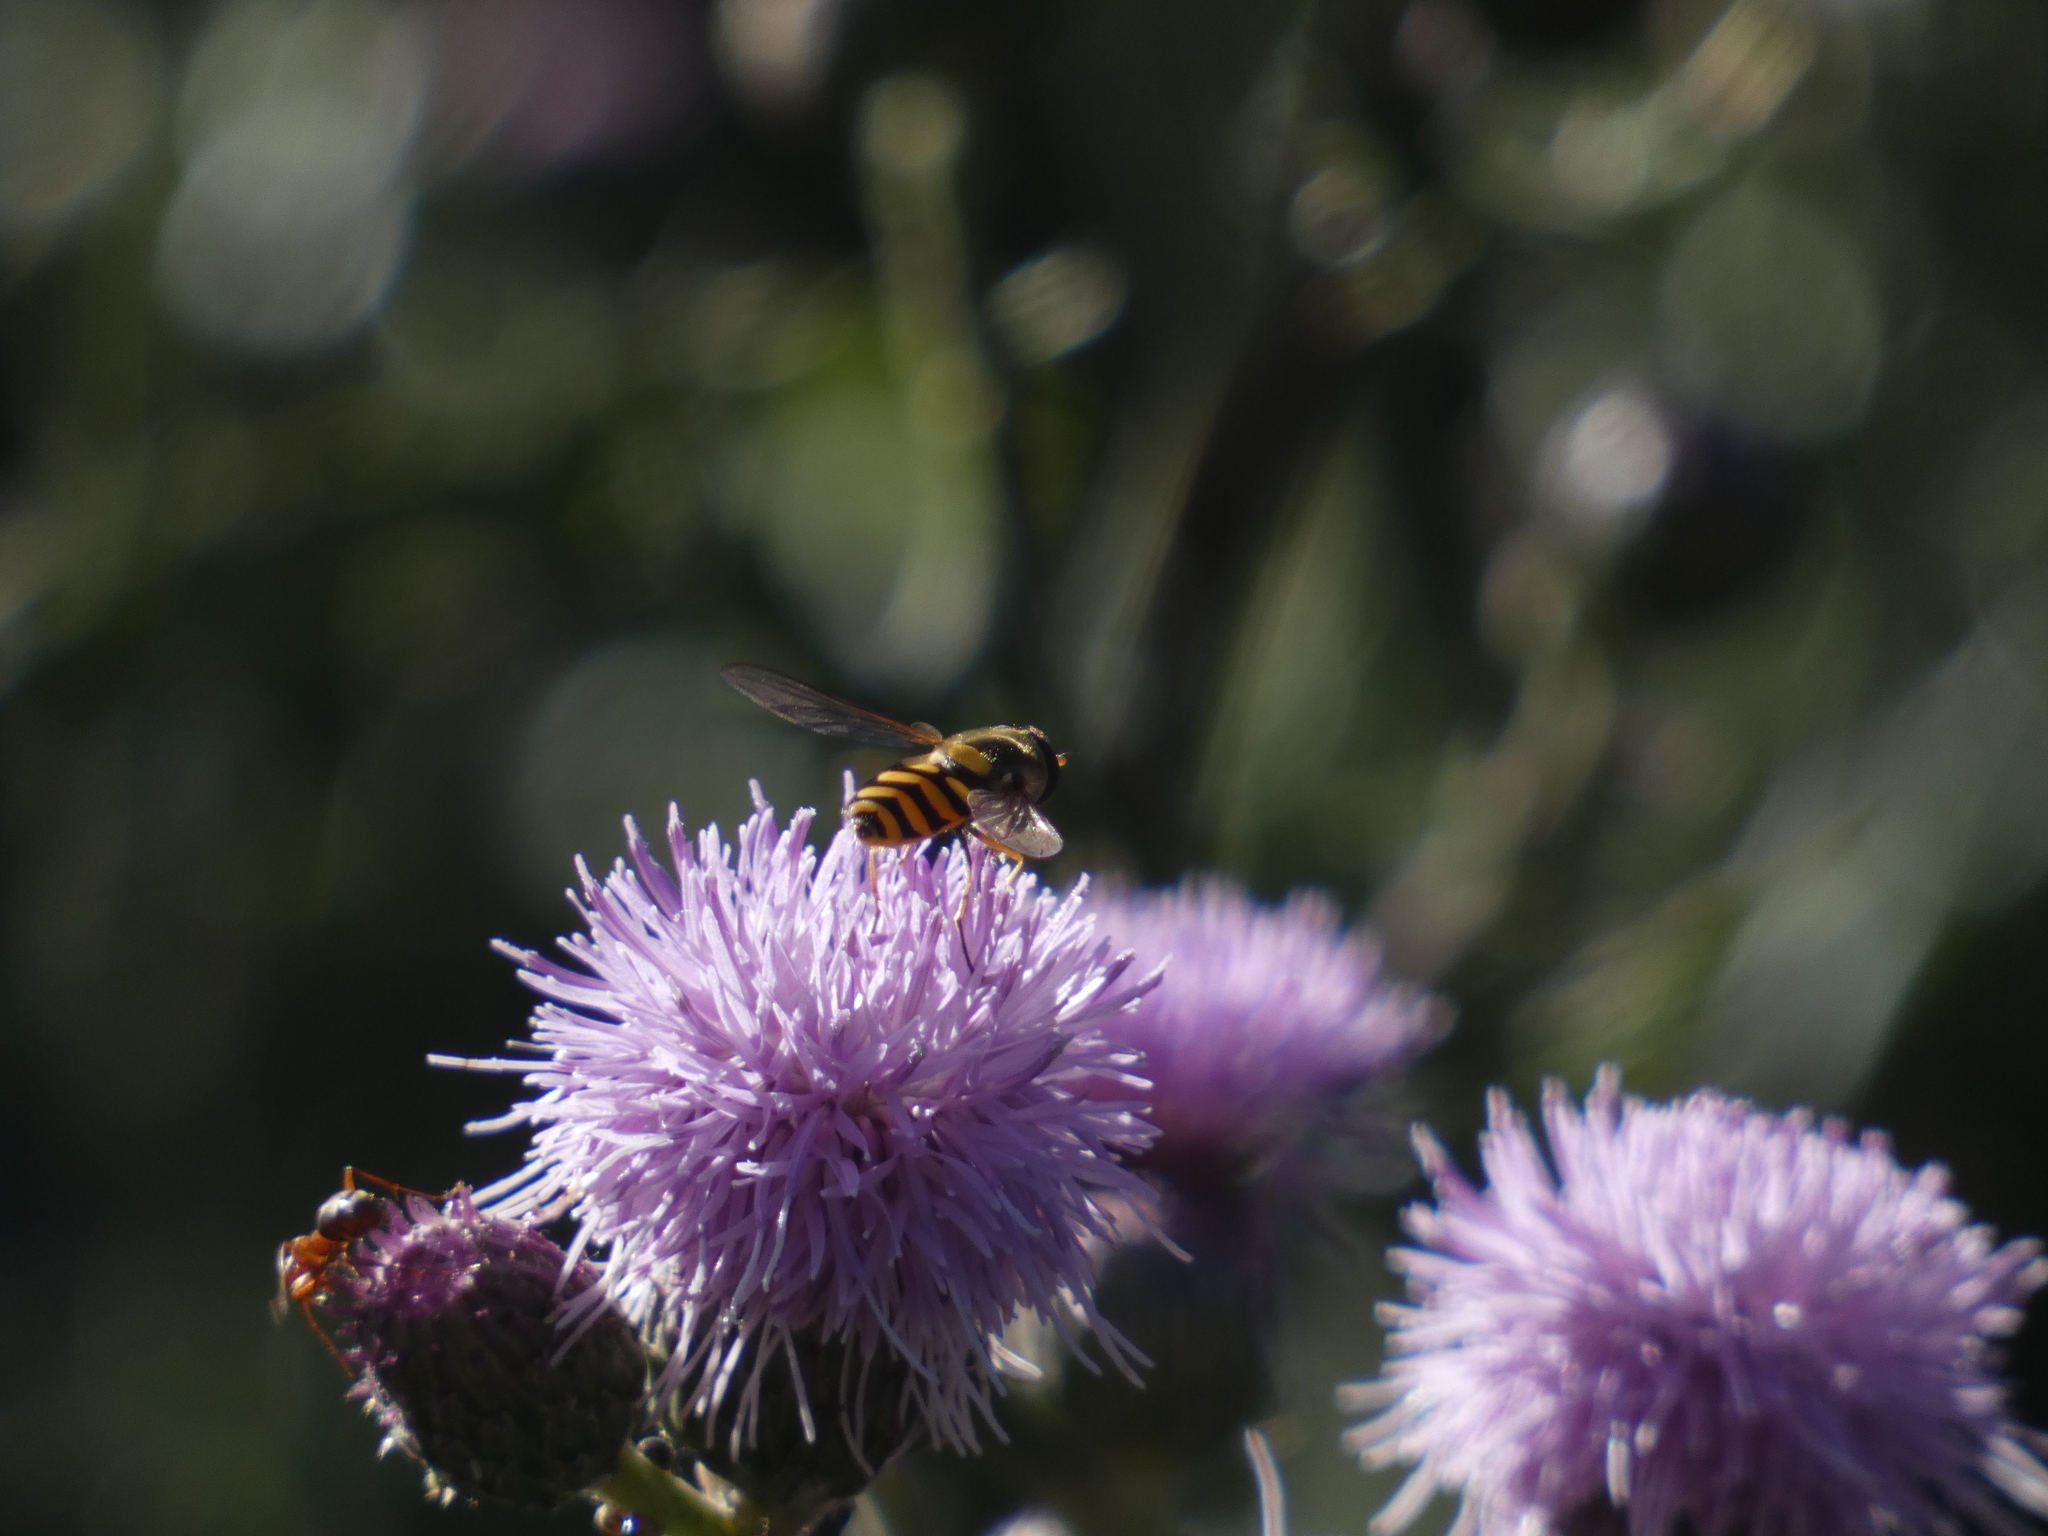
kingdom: Animalia
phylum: Arthropoda
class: Insecta
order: Diptera
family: Syrphidae
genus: Syrphus
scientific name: Syrphus
